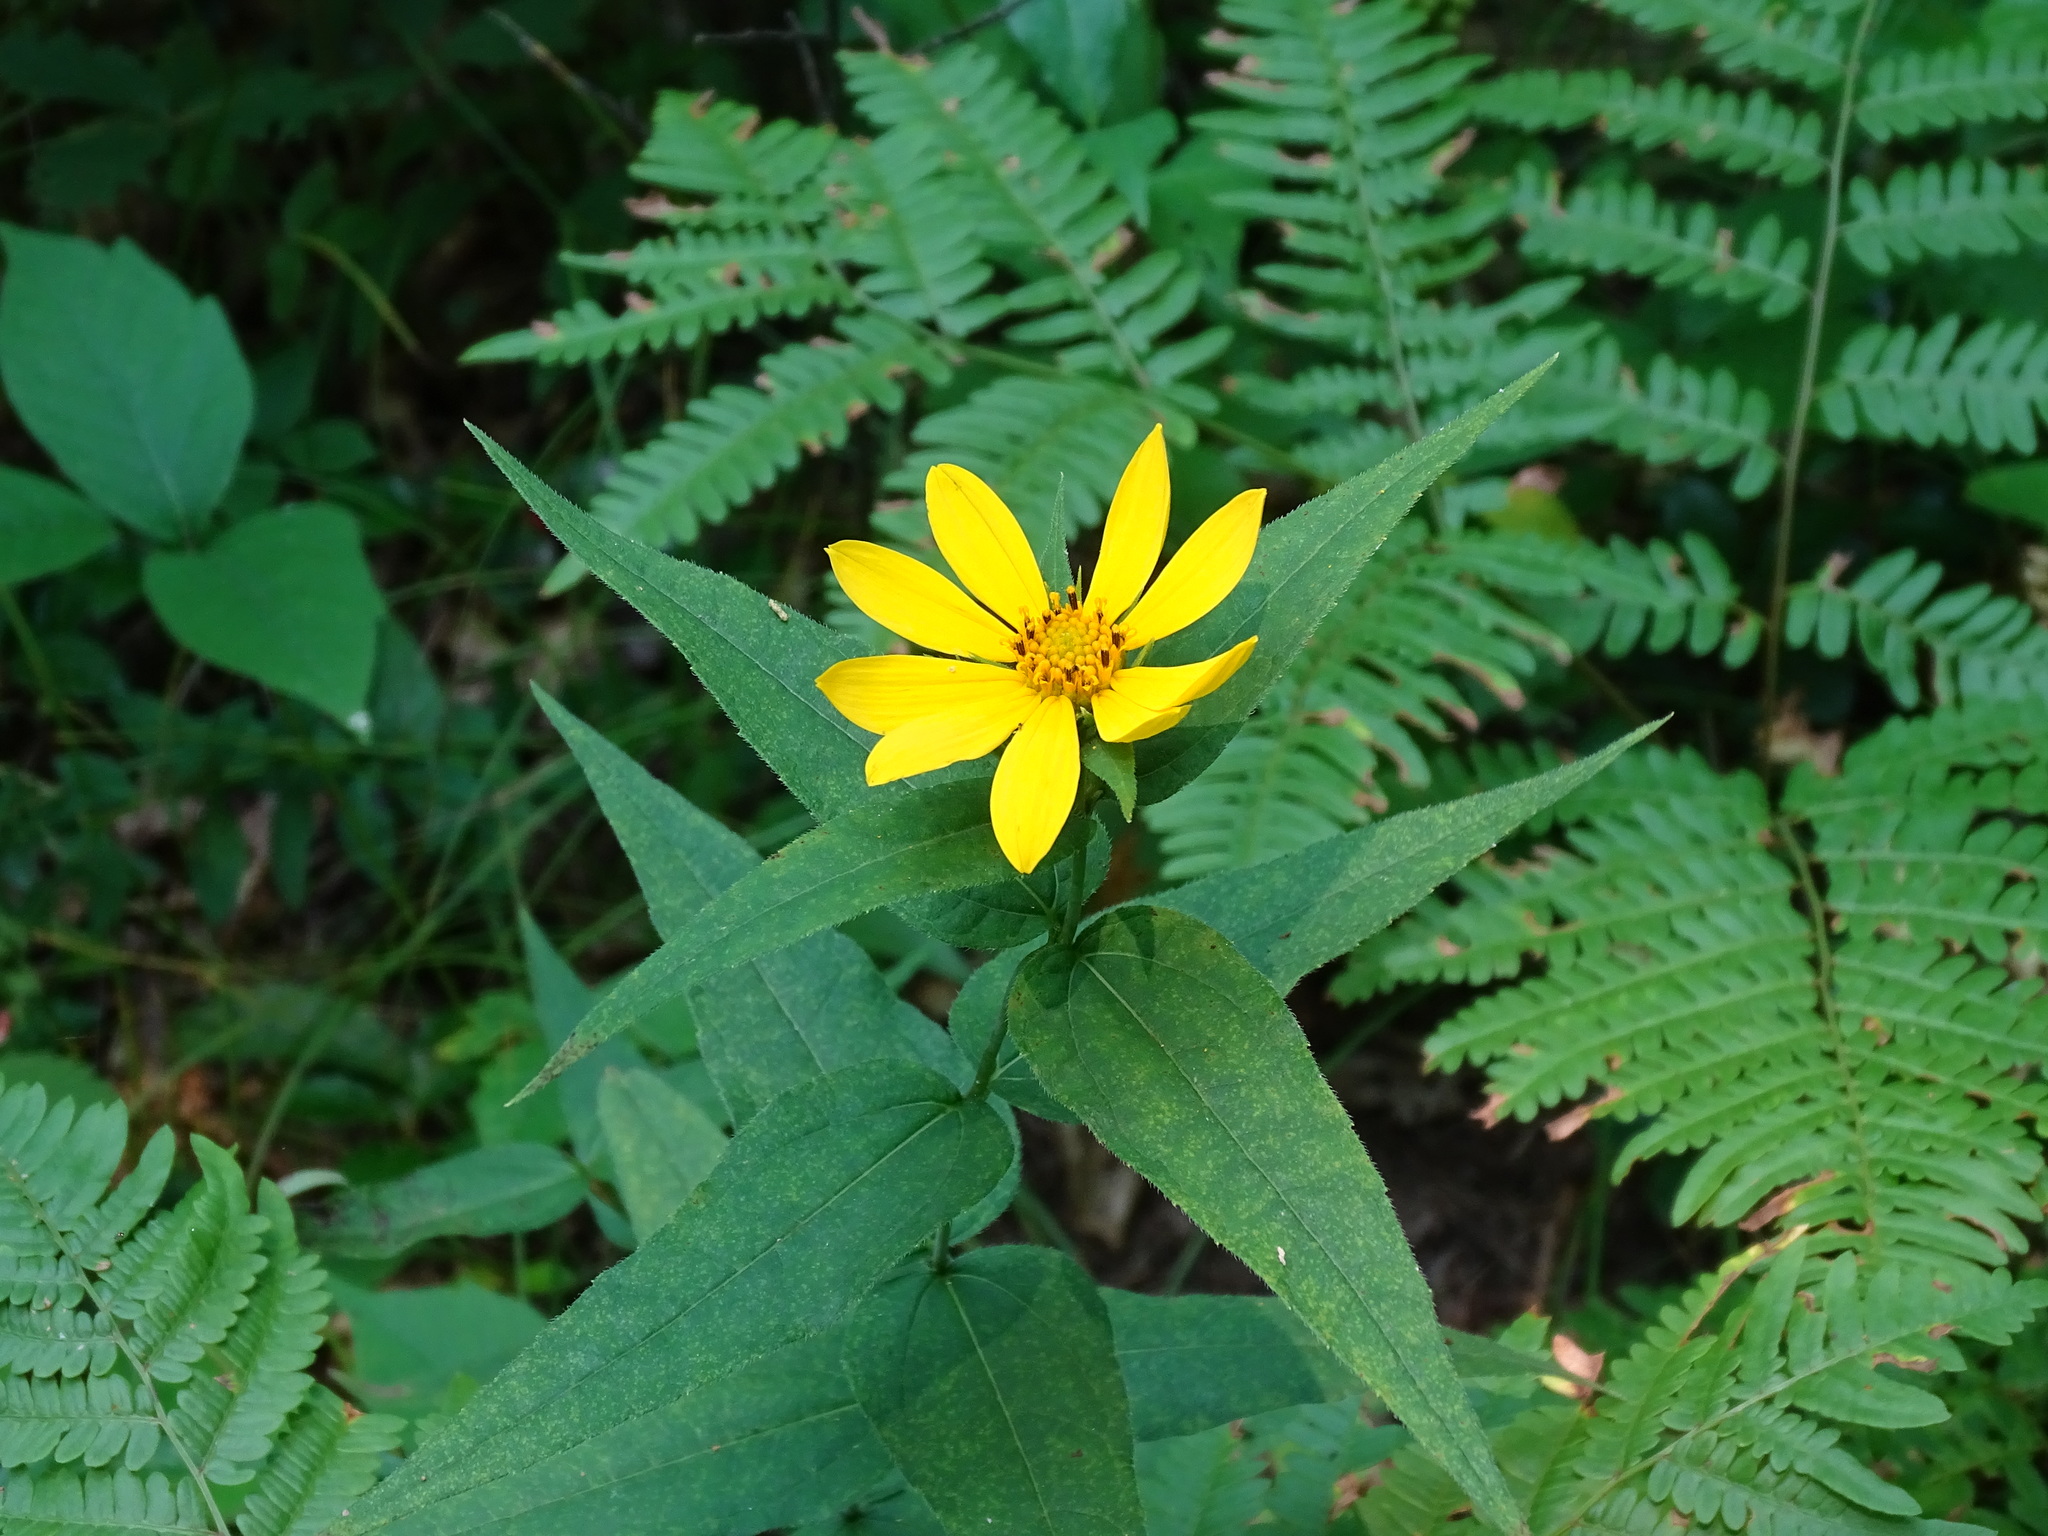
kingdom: Plantae
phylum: Tracheophyta
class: Magnoliopsida
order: Asterales
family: Asteraceae
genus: Helianthus
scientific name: Helianthus divaricatus
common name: Divergent sunflower
